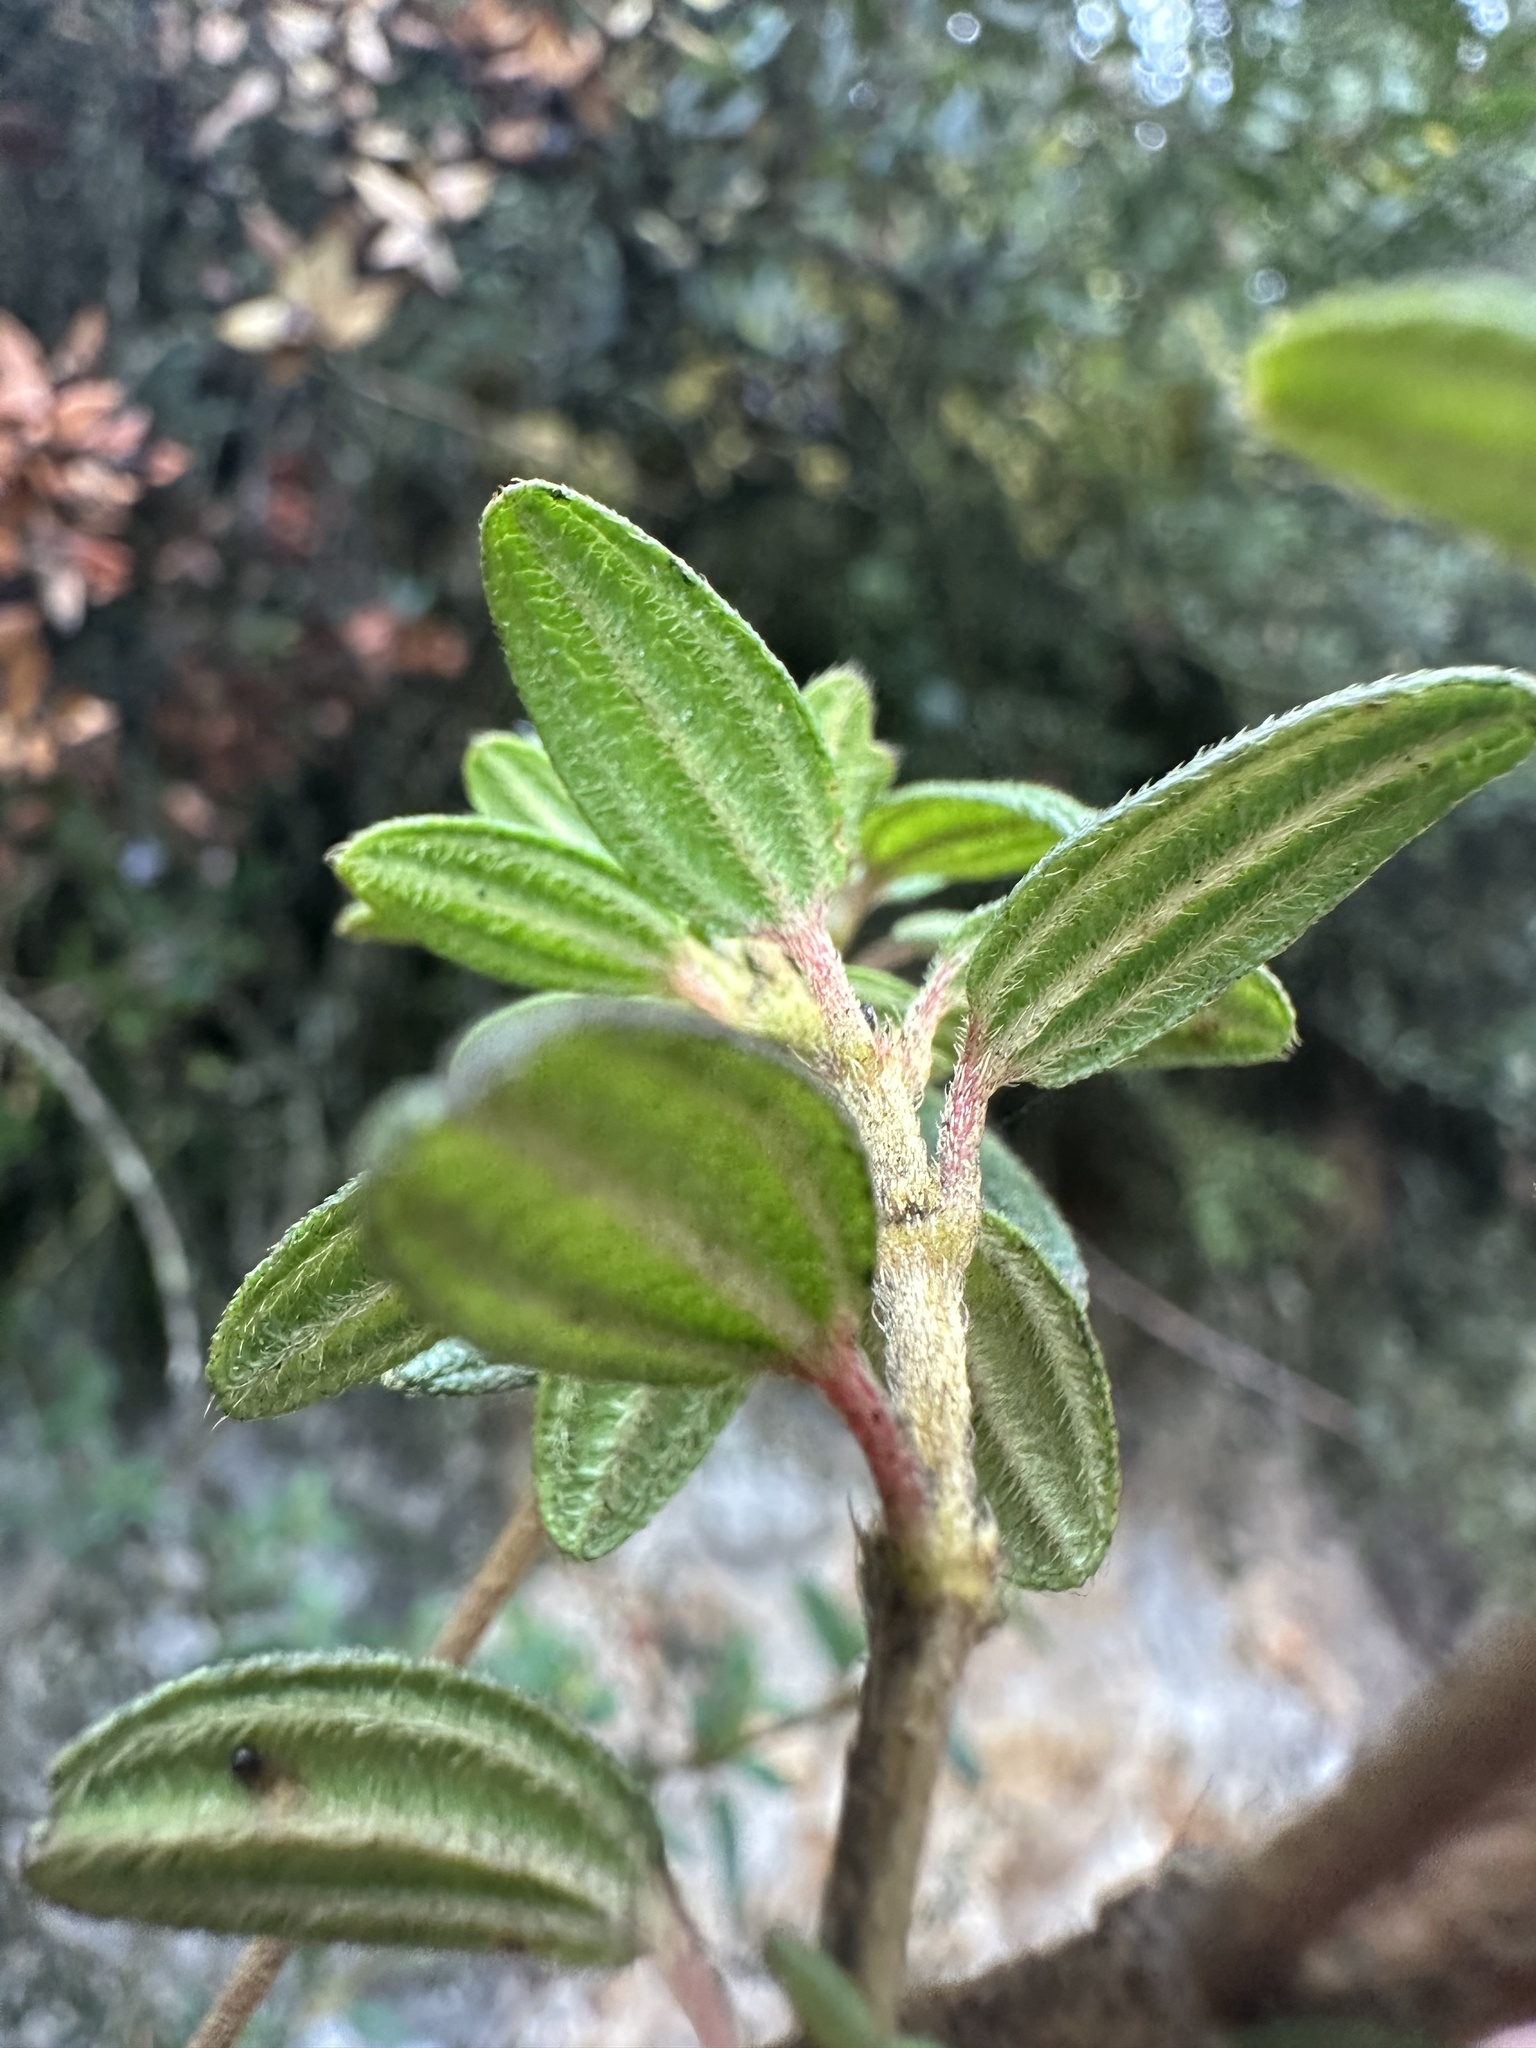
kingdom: Plantae
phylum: Tracheophyta
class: Magnoliopsida
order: Myrtales
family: Melastomataceae
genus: Brachyotum
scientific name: Brachyotum strigosum
